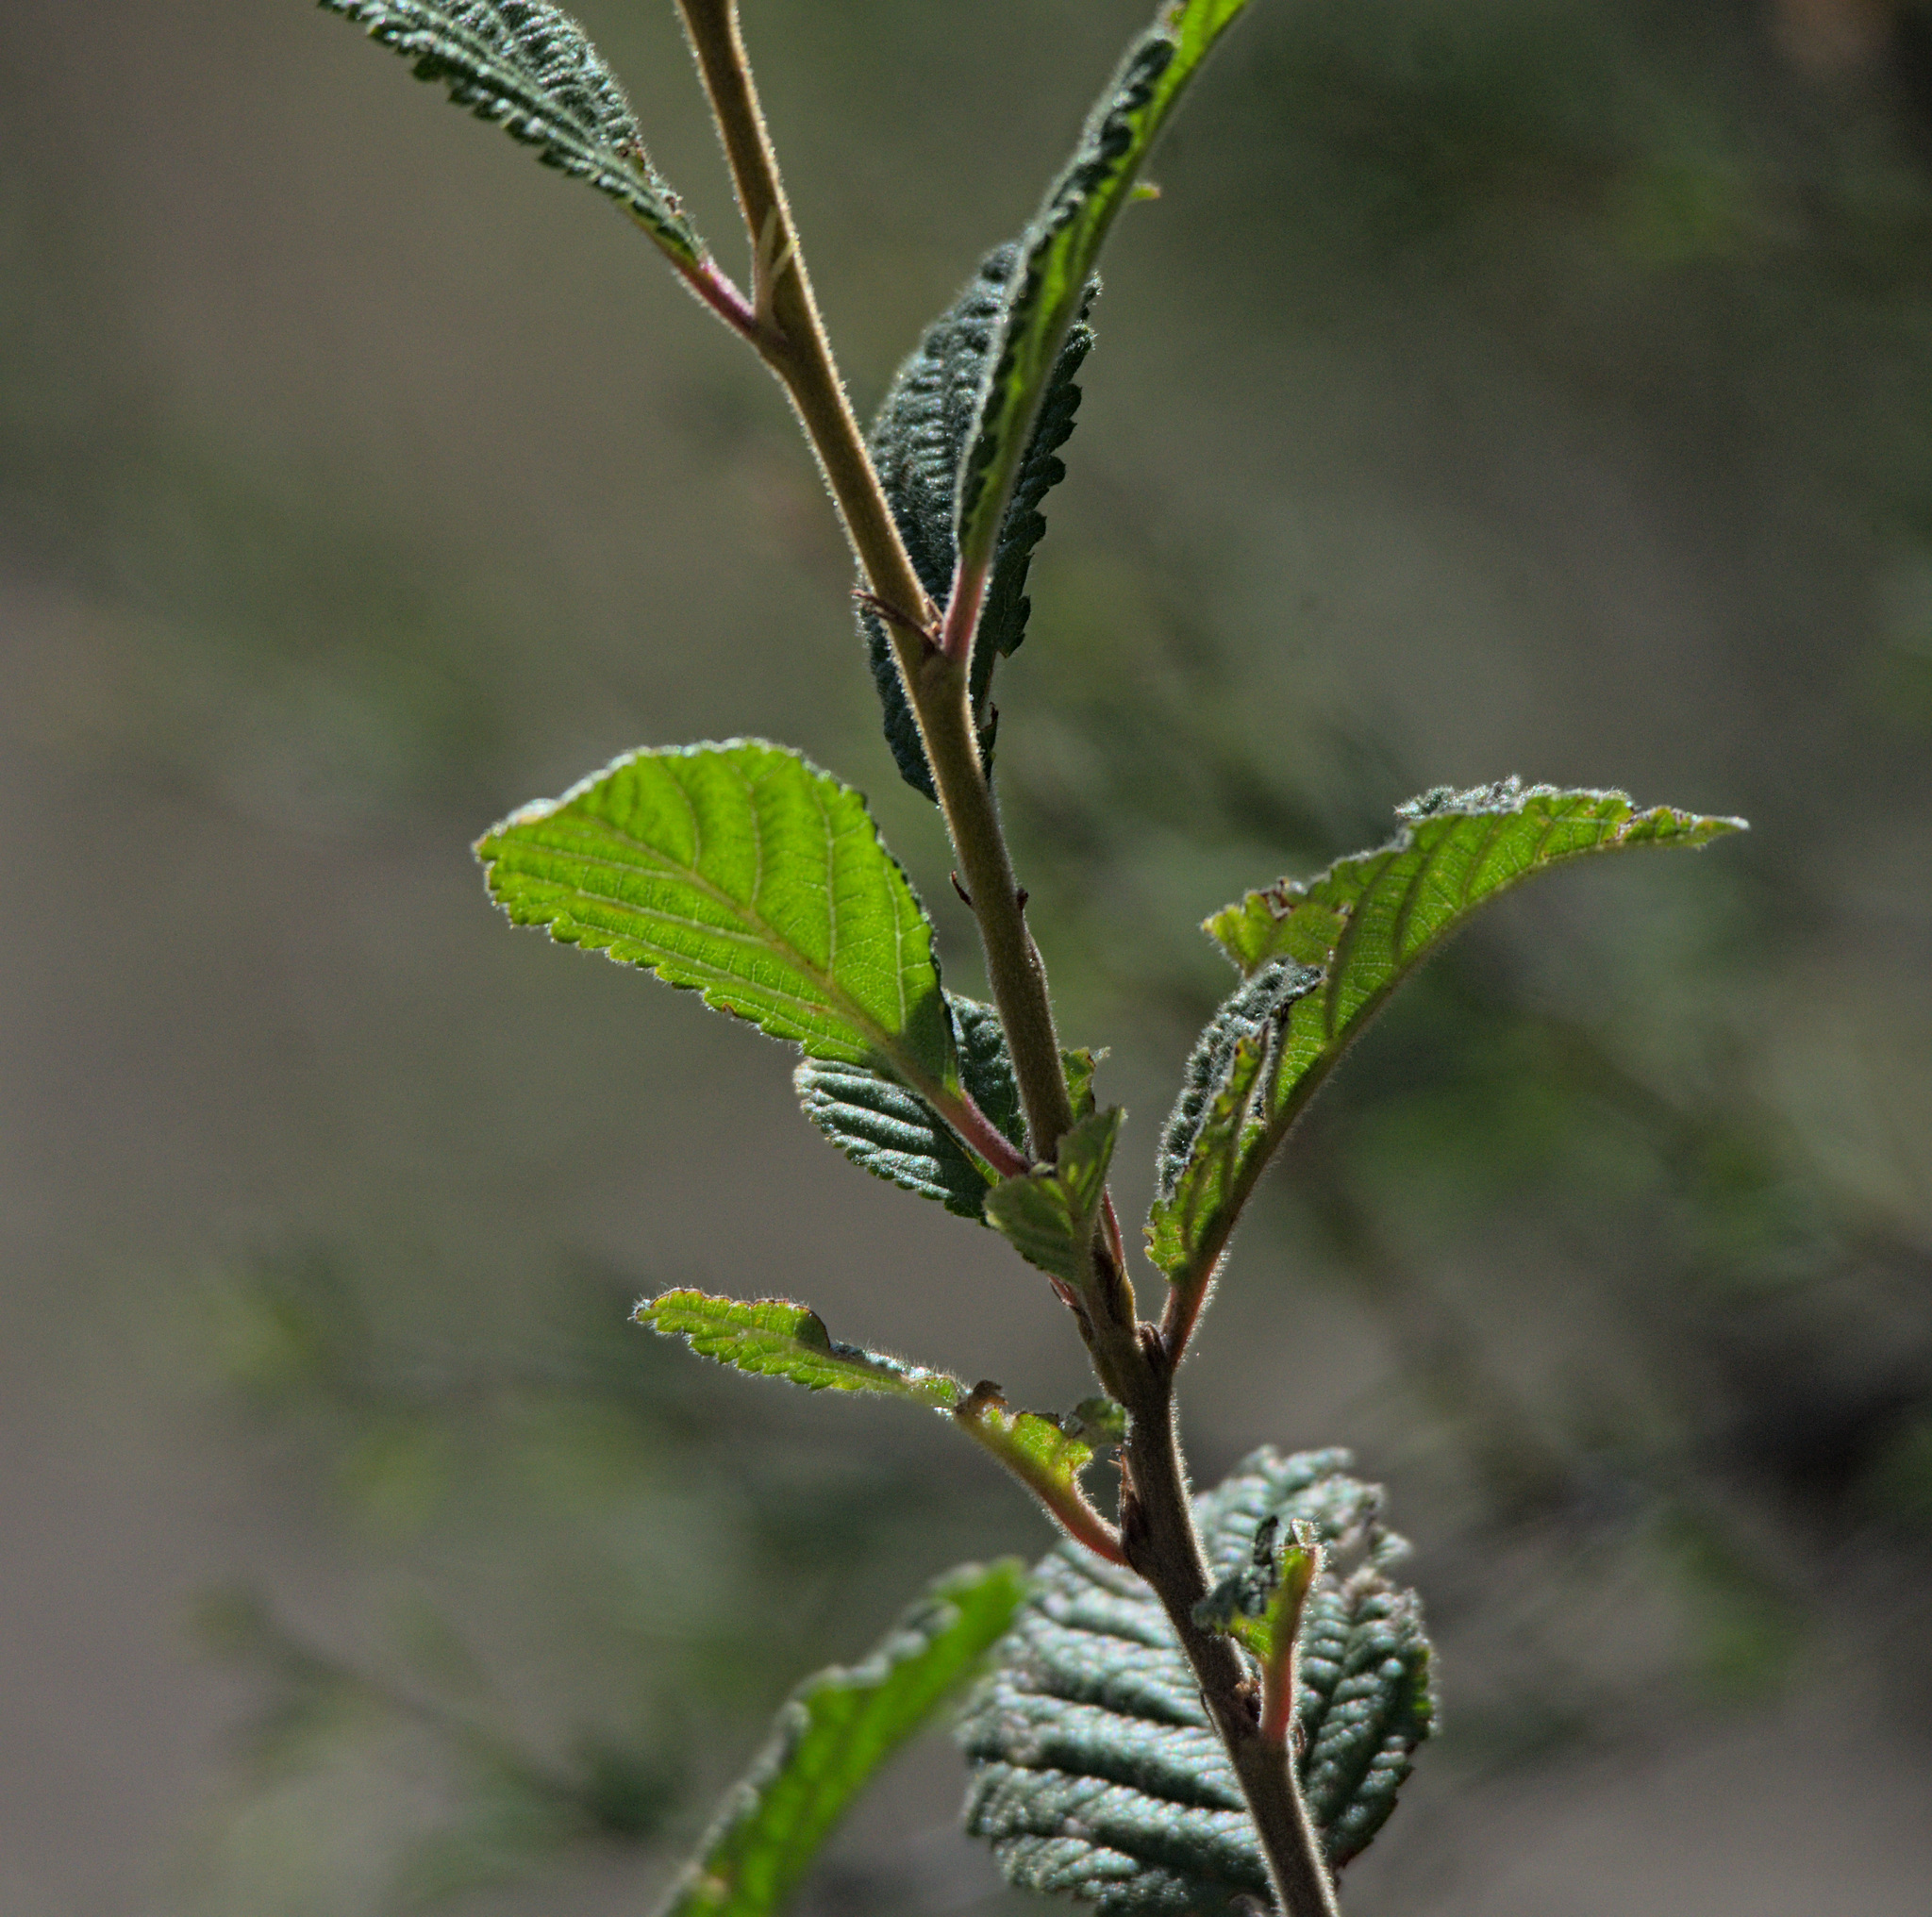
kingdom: Plantae
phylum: Tracheophyta
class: Magnoliopsida
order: Rosales
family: Rosaceae
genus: Prunus
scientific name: Prunus tomentosa
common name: Nanking cherry
